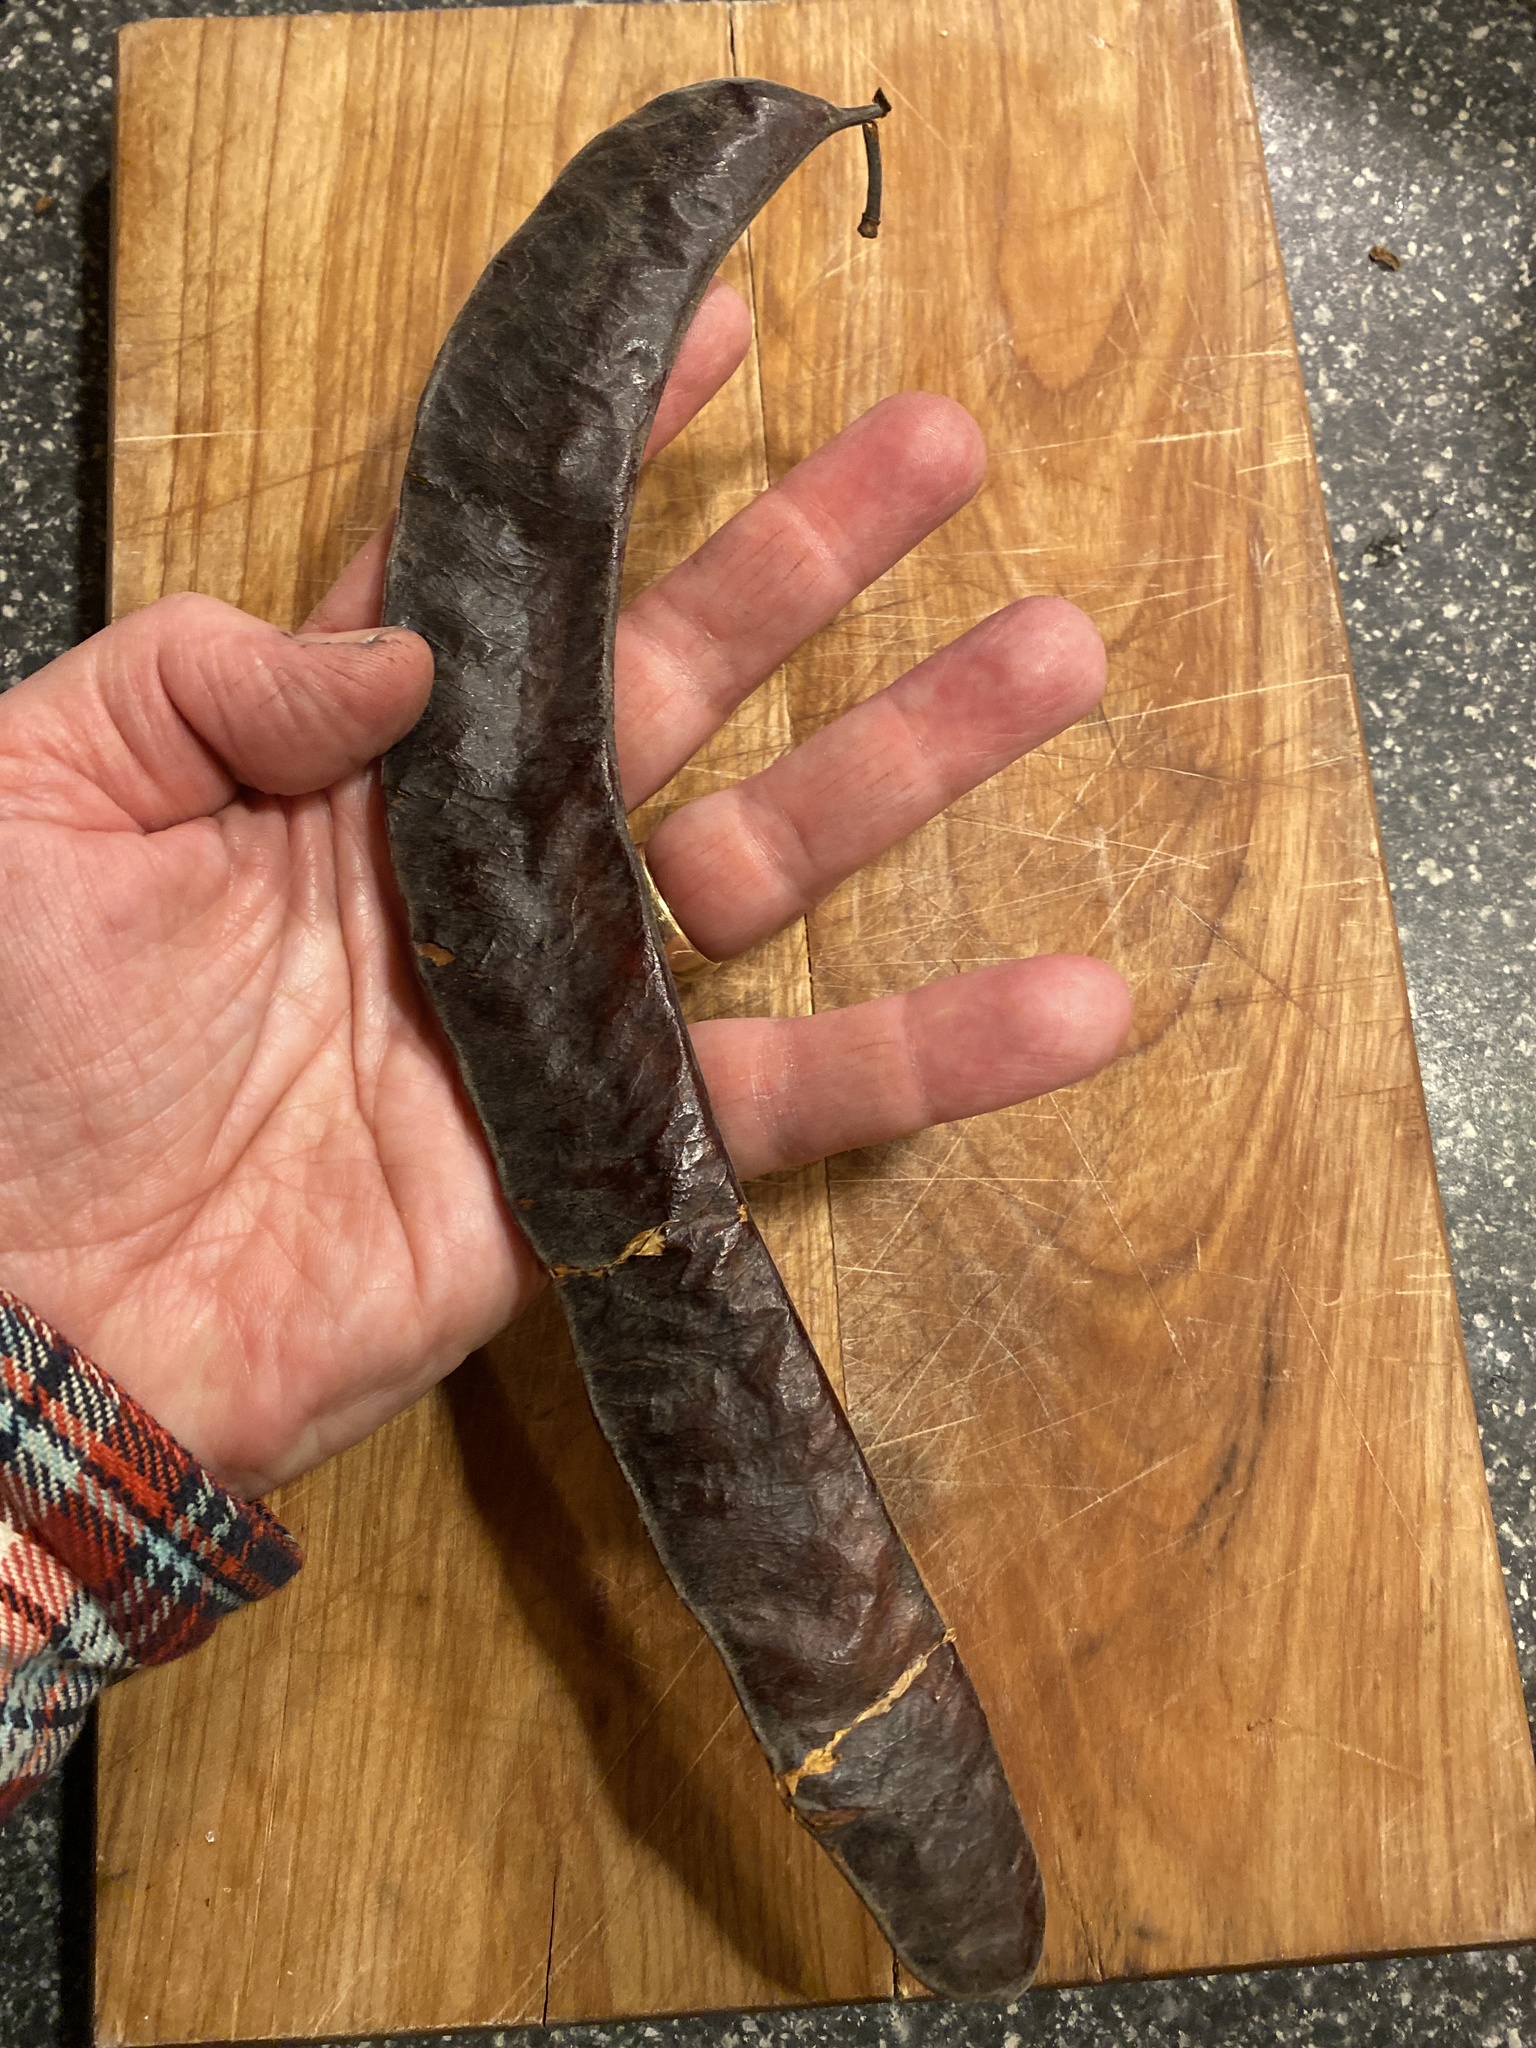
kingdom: Plantae
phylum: Tracheophyta
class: Magnoliopsida
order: Fabales
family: Fabaceae
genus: Gleditsia
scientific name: Gleditsia triacanthos
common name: Common honeylocust
